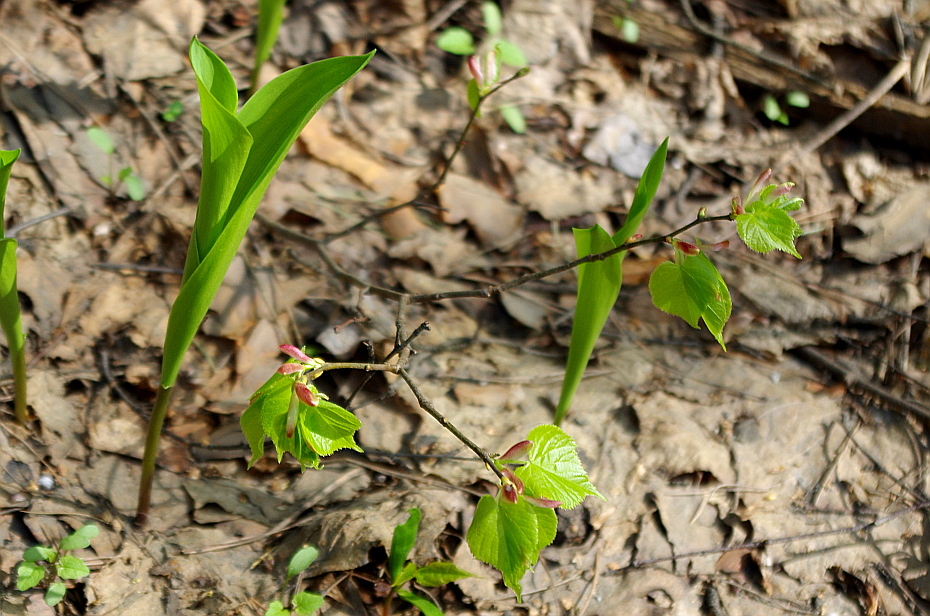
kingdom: Plantae
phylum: Tracheophyta
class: Magnoliopsida
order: Malvales
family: Malvaceae
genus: Tilia
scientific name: Tilia cordata
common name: Small-leaved lime
